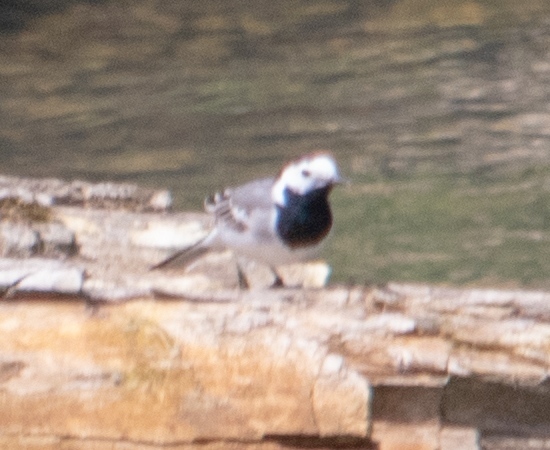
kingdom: Animalia
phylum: Chordata
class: Aves
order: Passeriformes
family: Motacillidae
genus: Motacilla
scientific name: Motacilla alba
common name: White wagtail
